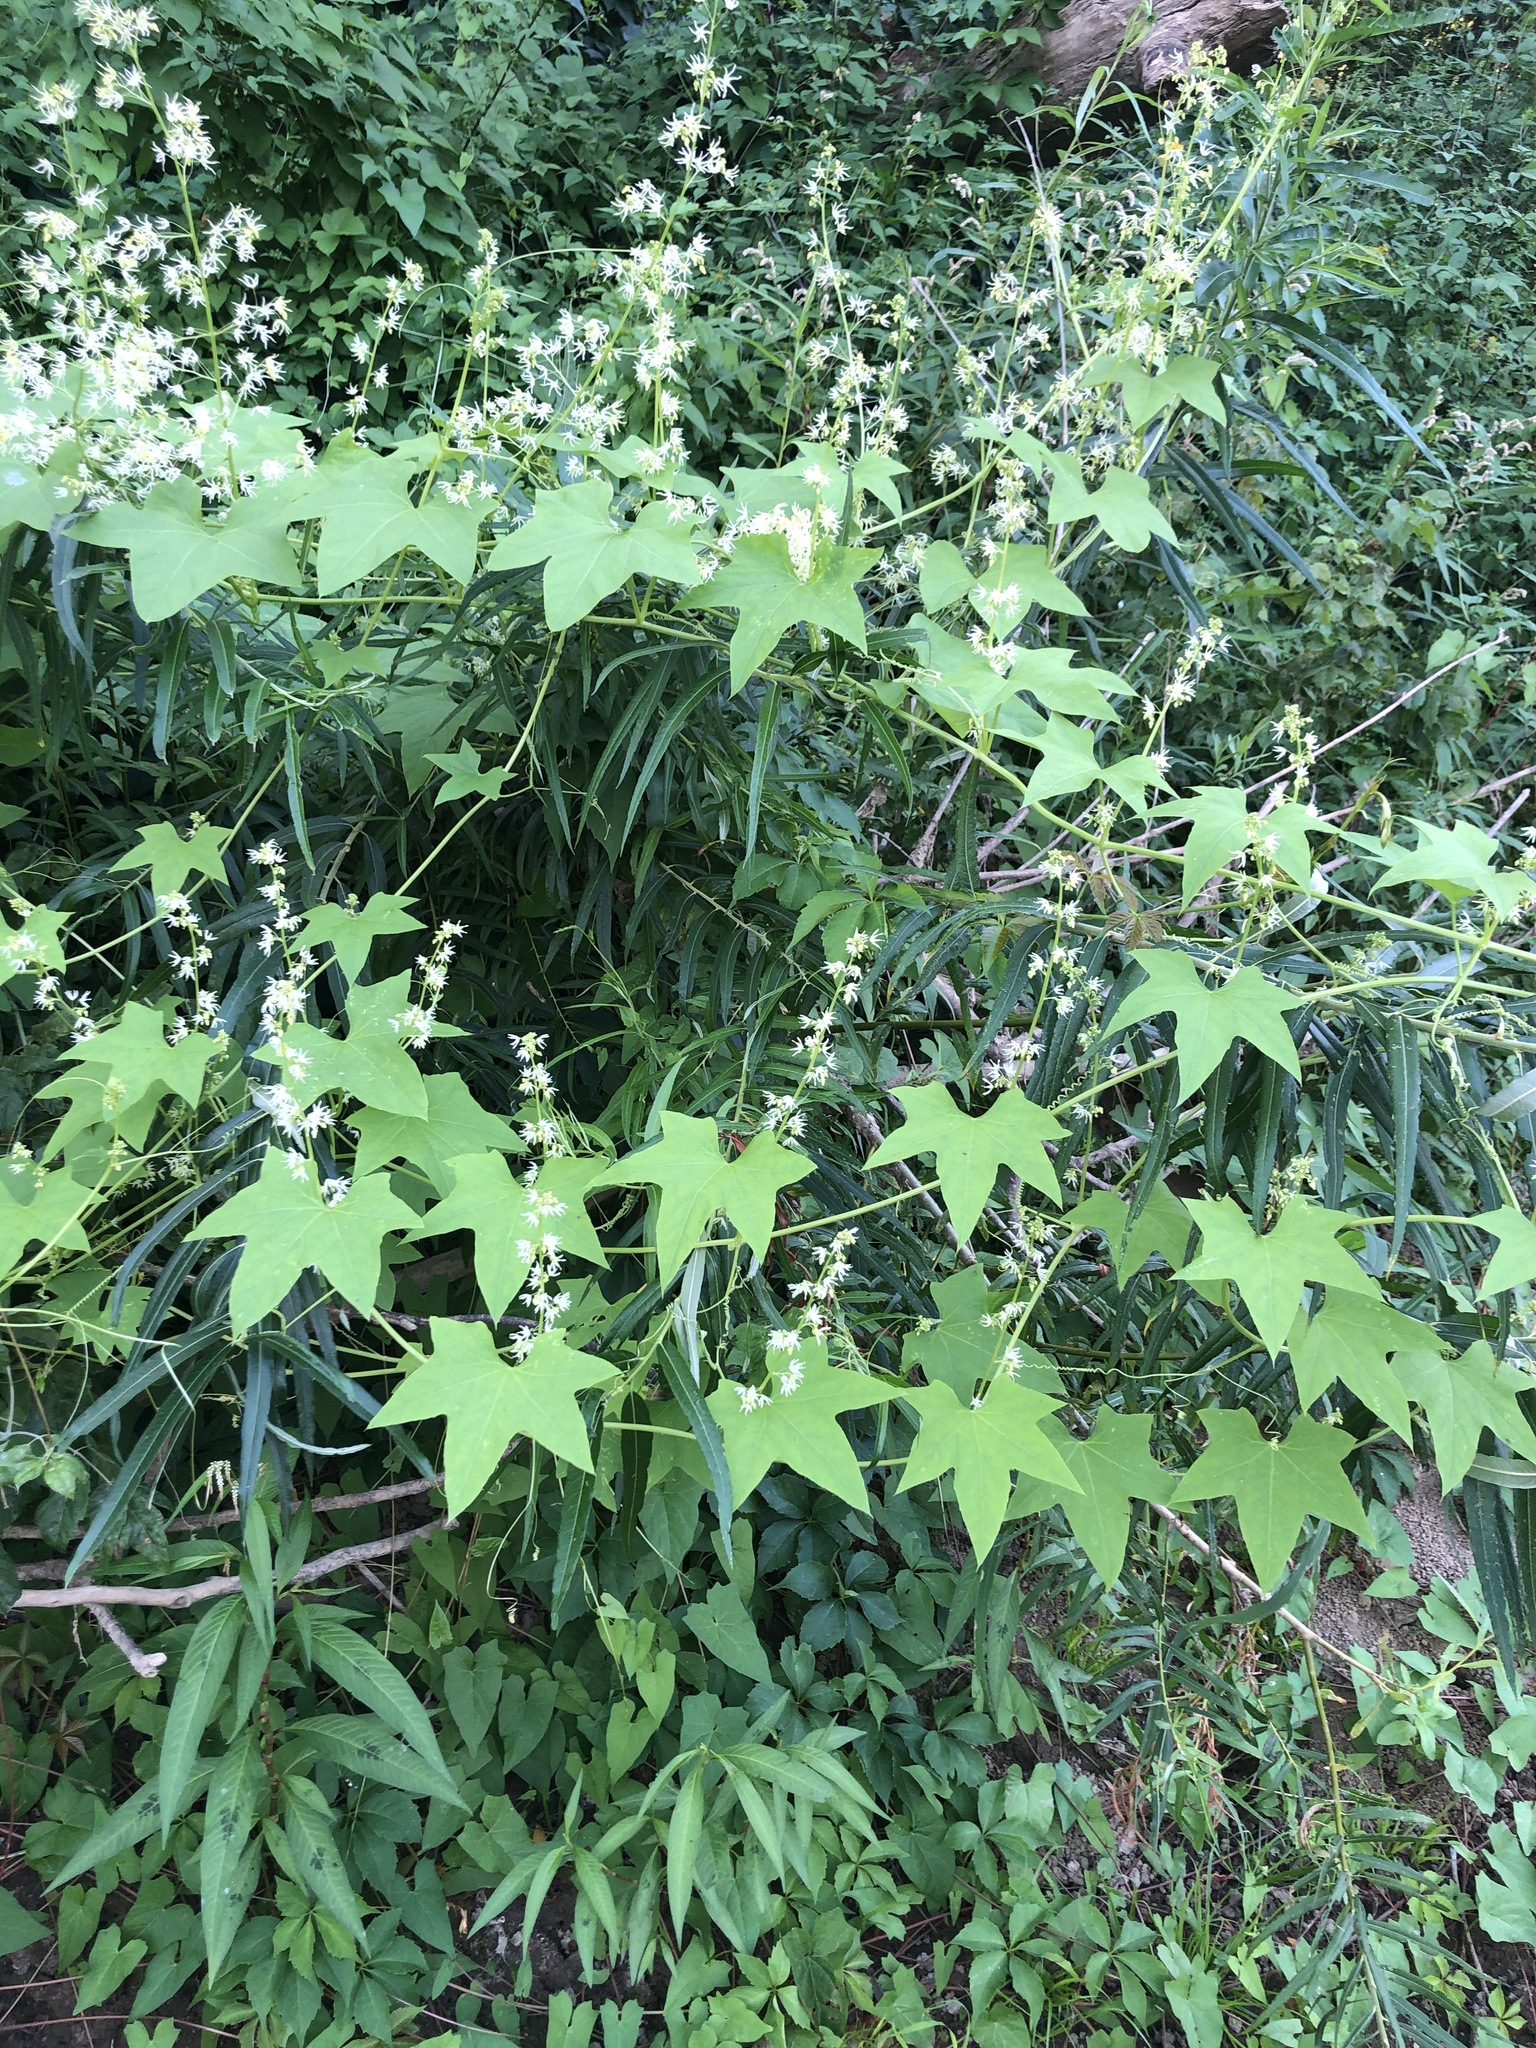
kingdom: Plantae
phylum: Tracheophyta
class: Magnoliopsida
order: Cucurbitales
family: Cucurbitaceae
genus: Echinocystis
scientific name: Echinocystis lobata
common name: Wild cucumber
